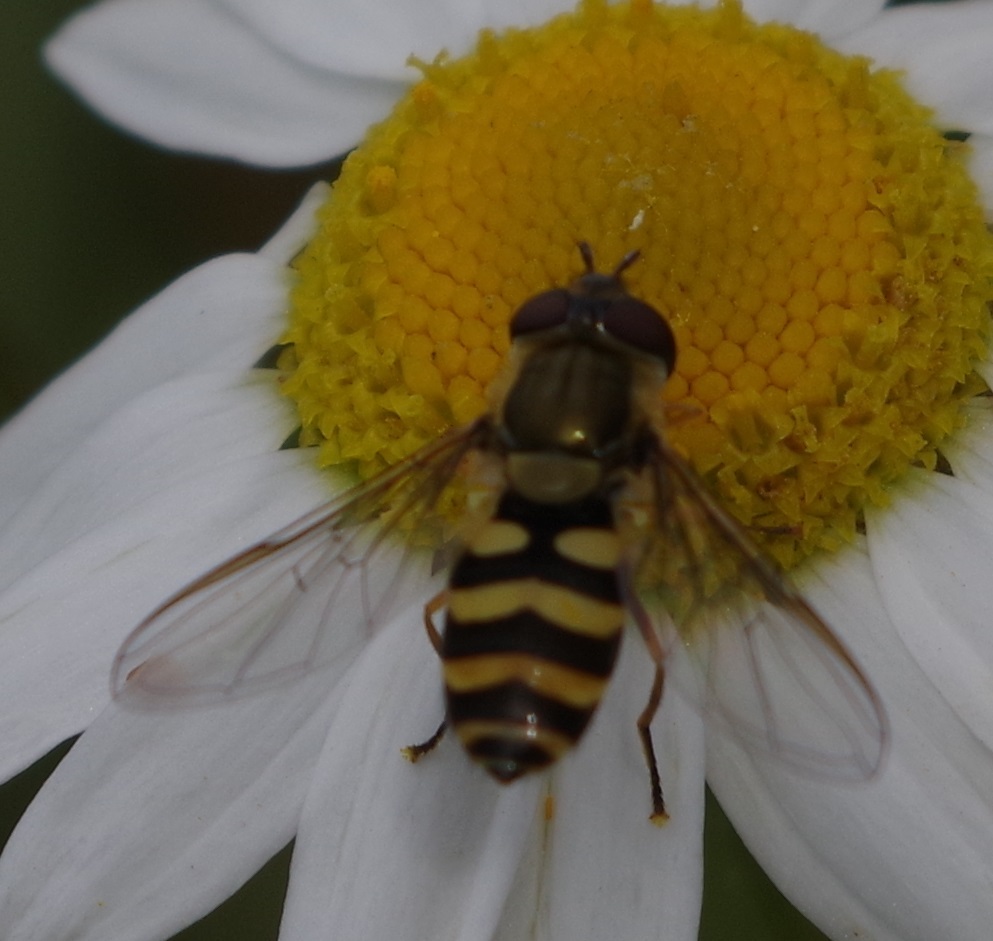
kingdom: Animalia
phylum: Arthropoda
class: Insecta
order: Diptera
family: Syrphidae
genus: Syrphus
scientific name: Syrphus
